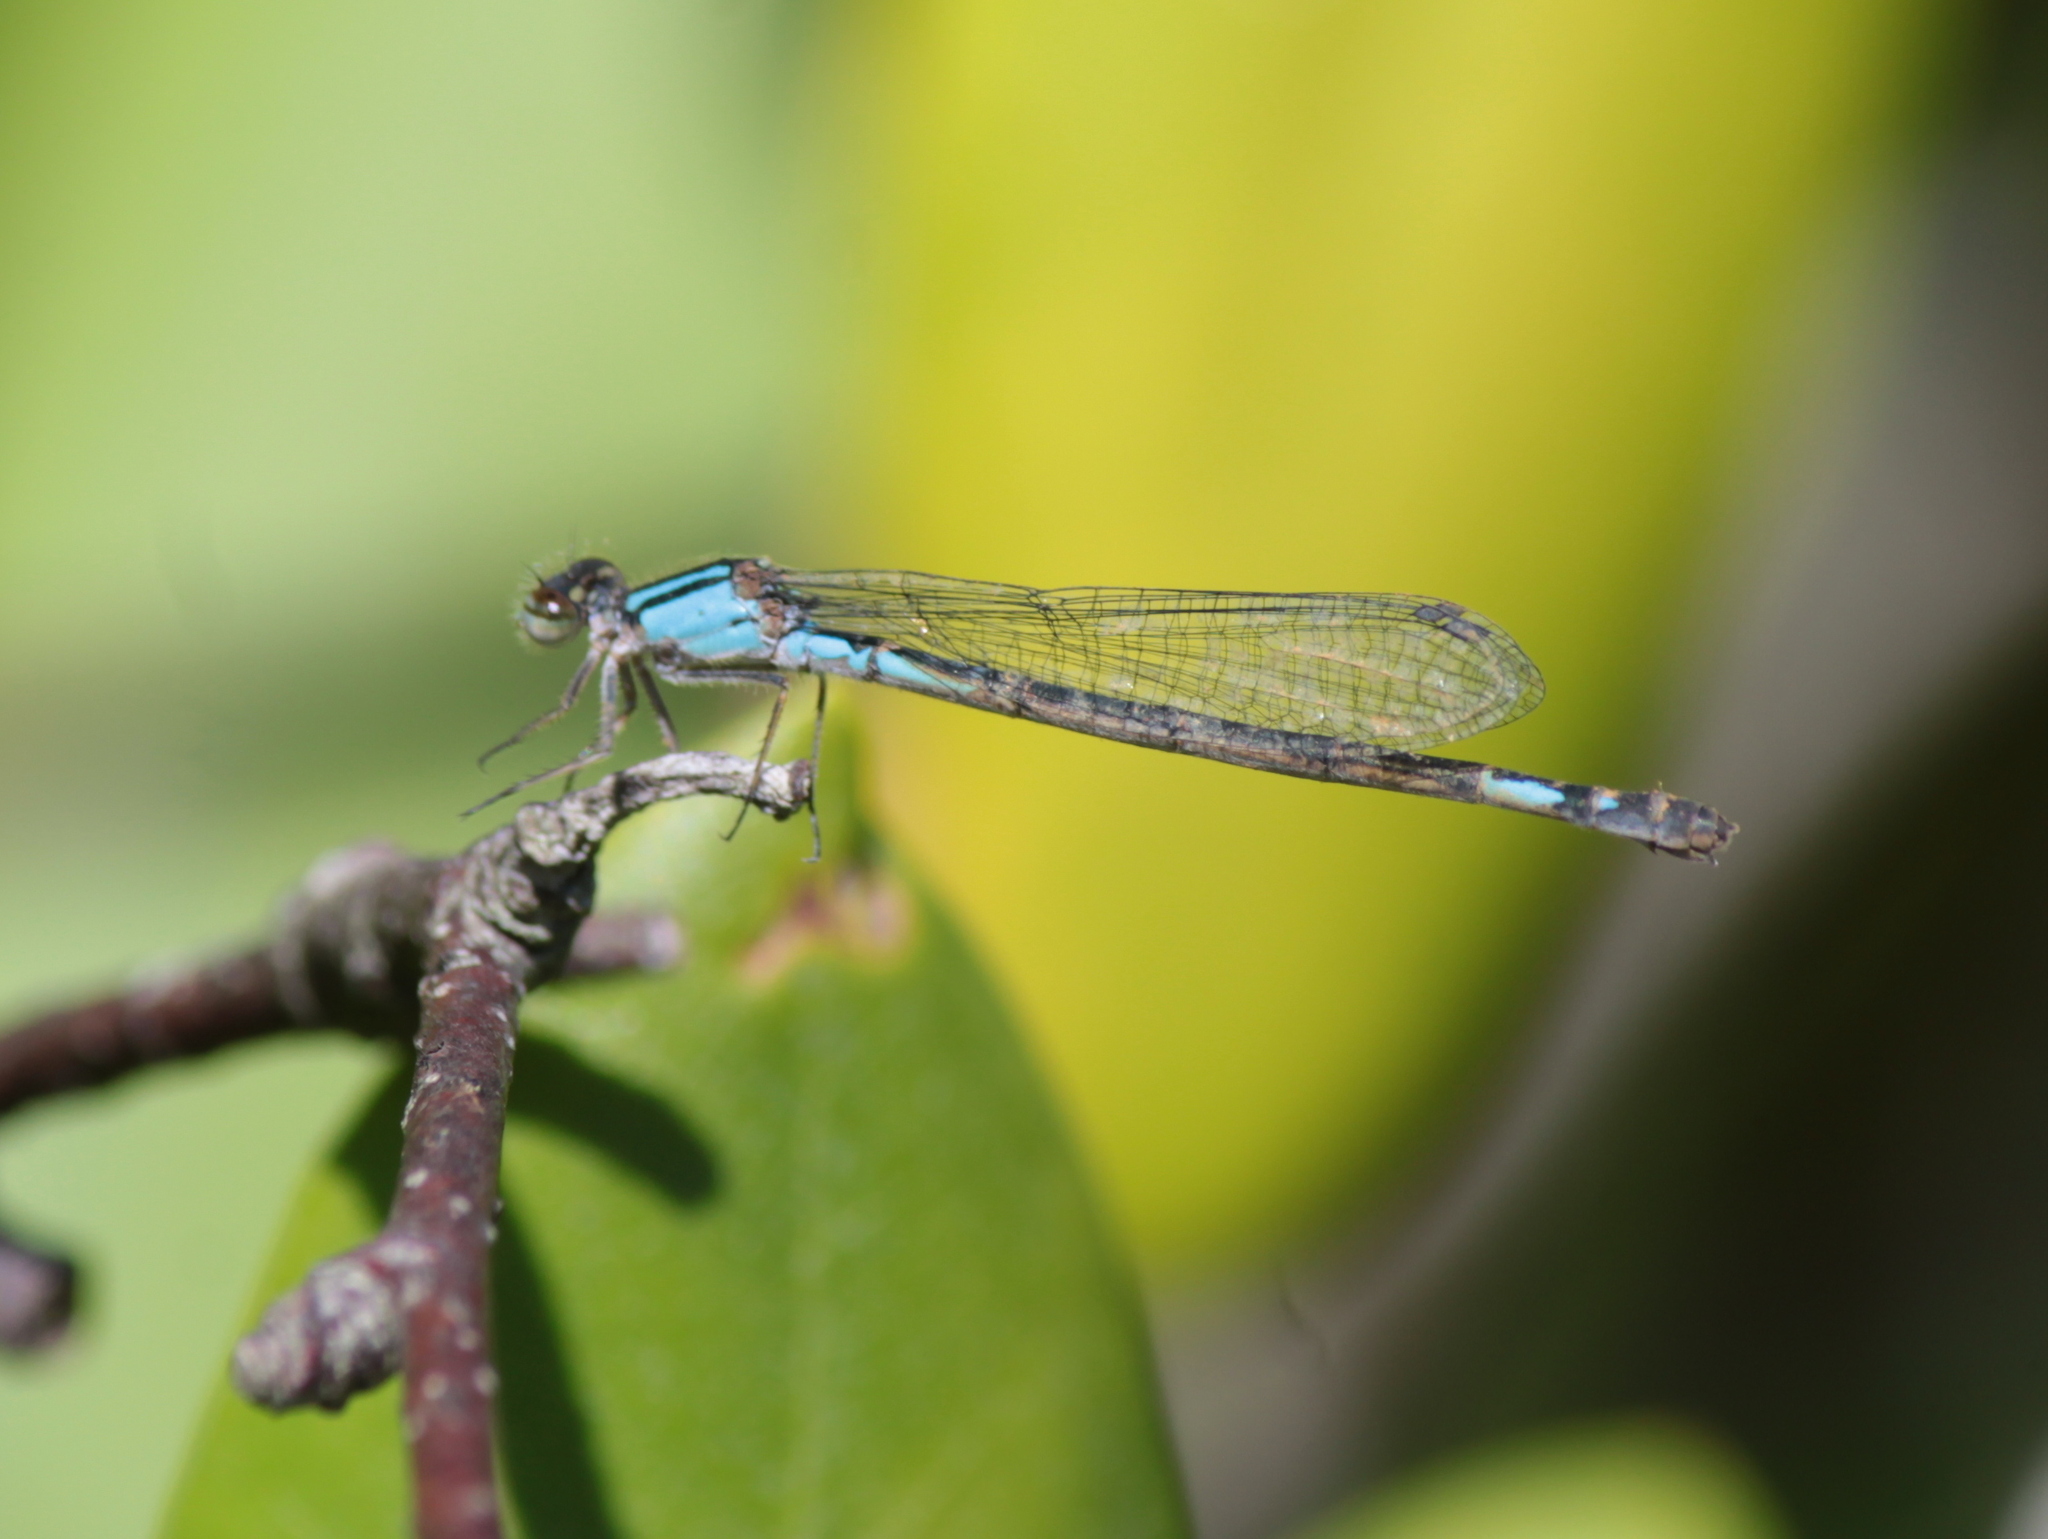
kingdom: Animalia
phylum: Arthropoda
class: Insecta
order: Odonata
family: Coenagrionidae
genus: Enallagma
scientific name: Enallagma aspersum
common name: Azure bluet
